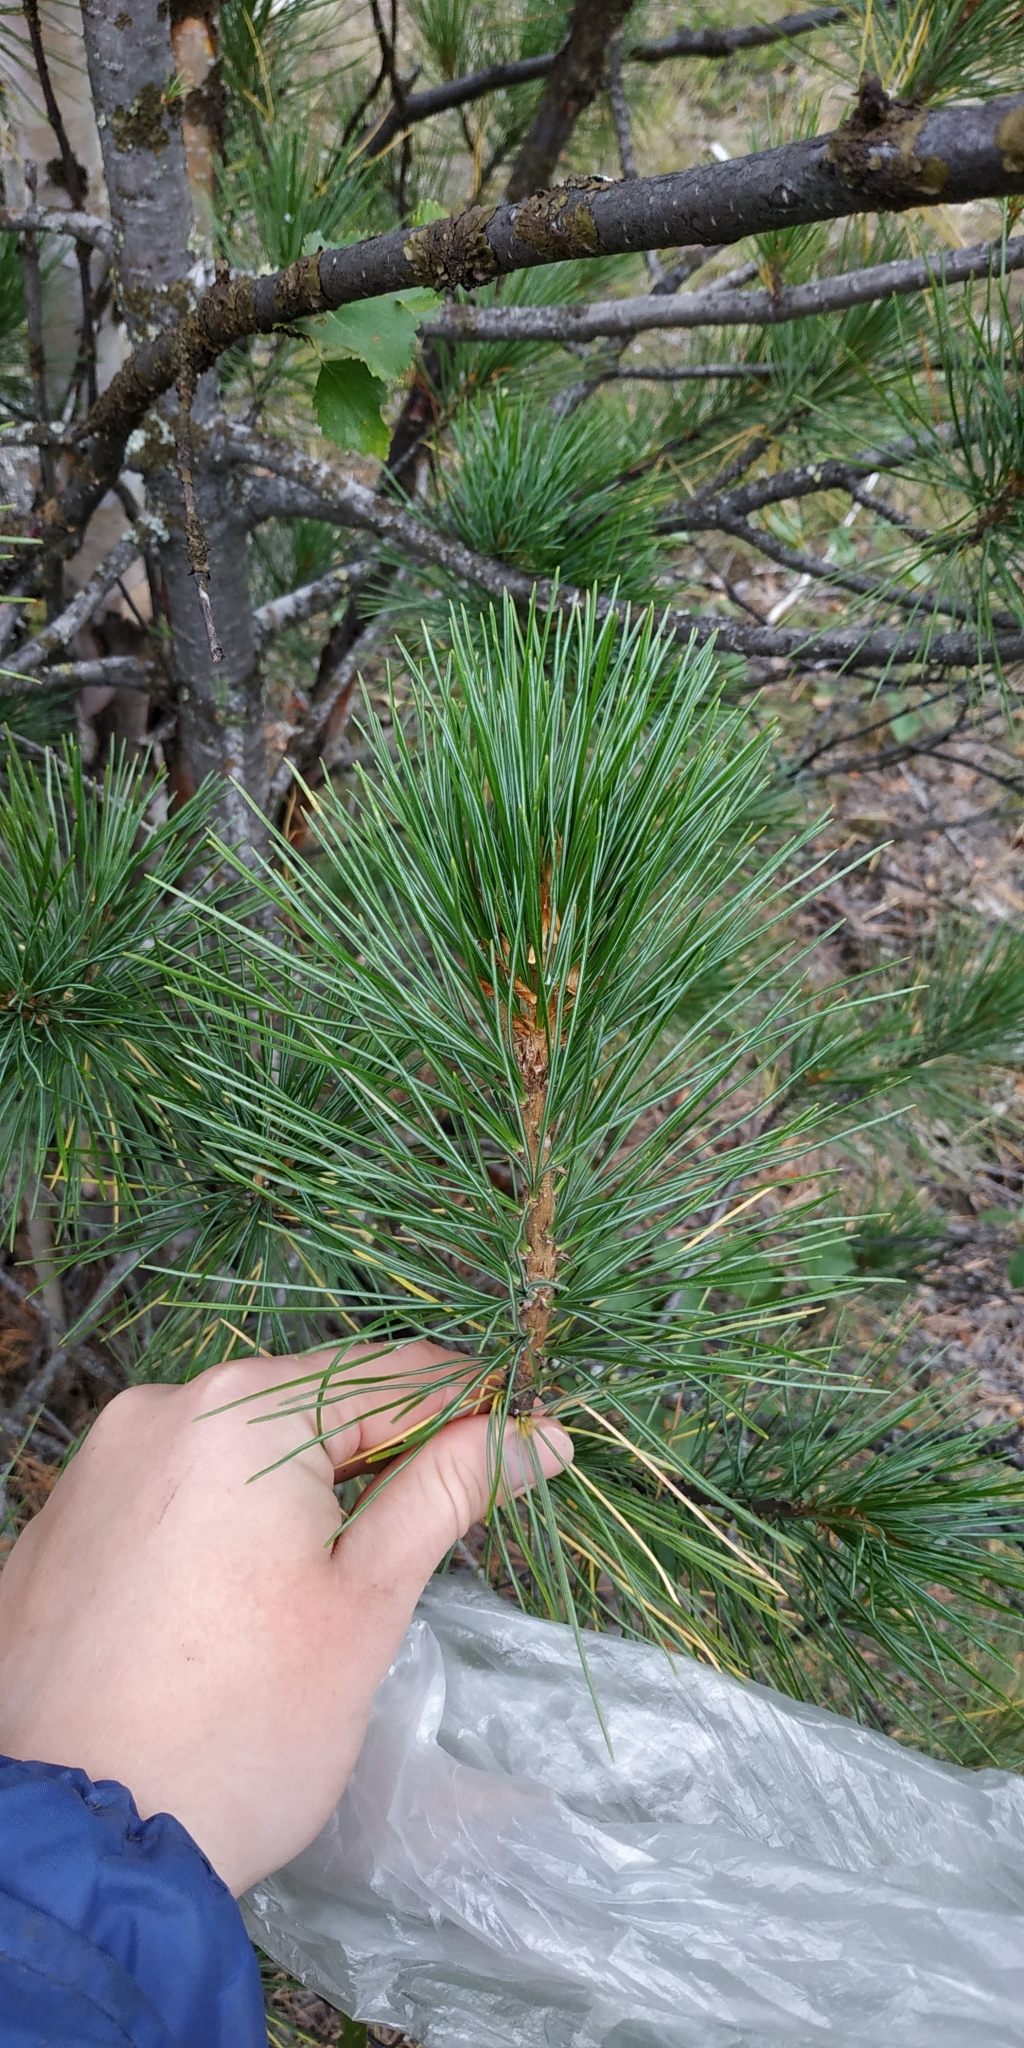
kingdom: Plantae
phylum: Tracheophyta
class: Pinopsida
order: Pinales
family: Pinaceae
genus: Pinus
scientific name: Pinus sibirica
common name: Siberian pine
